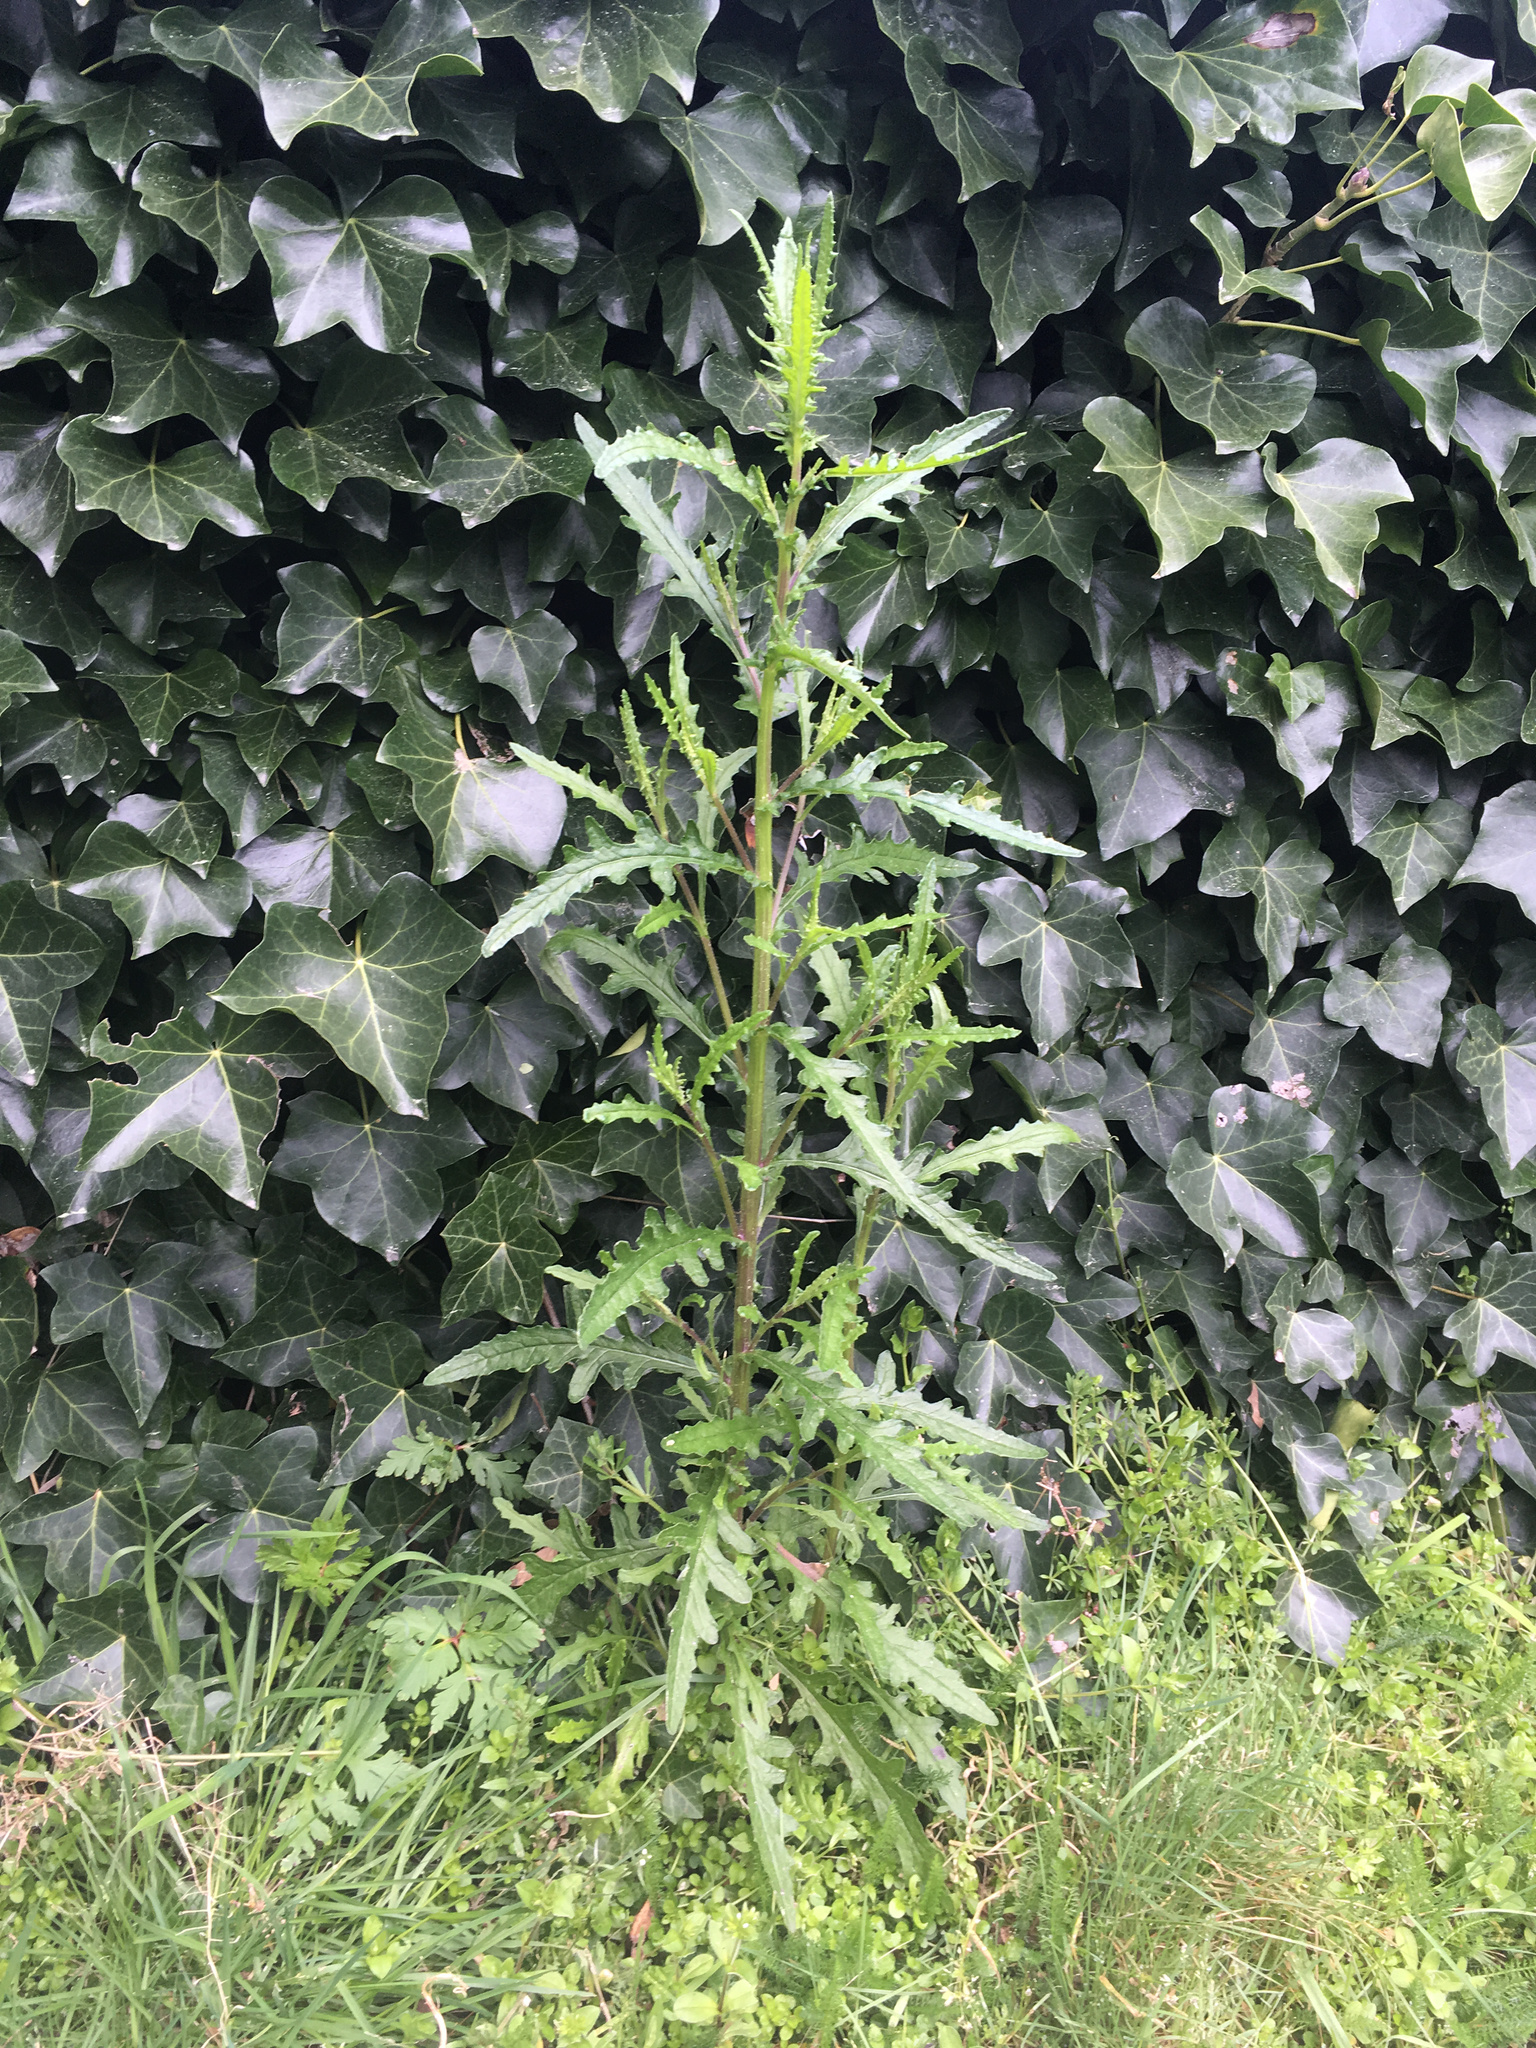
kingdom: Plantae
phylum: Tracheophyta
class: Magnoliopsida
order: Asterales
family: Asteraceae
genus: Senecio
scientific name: Senecio hispidulus
